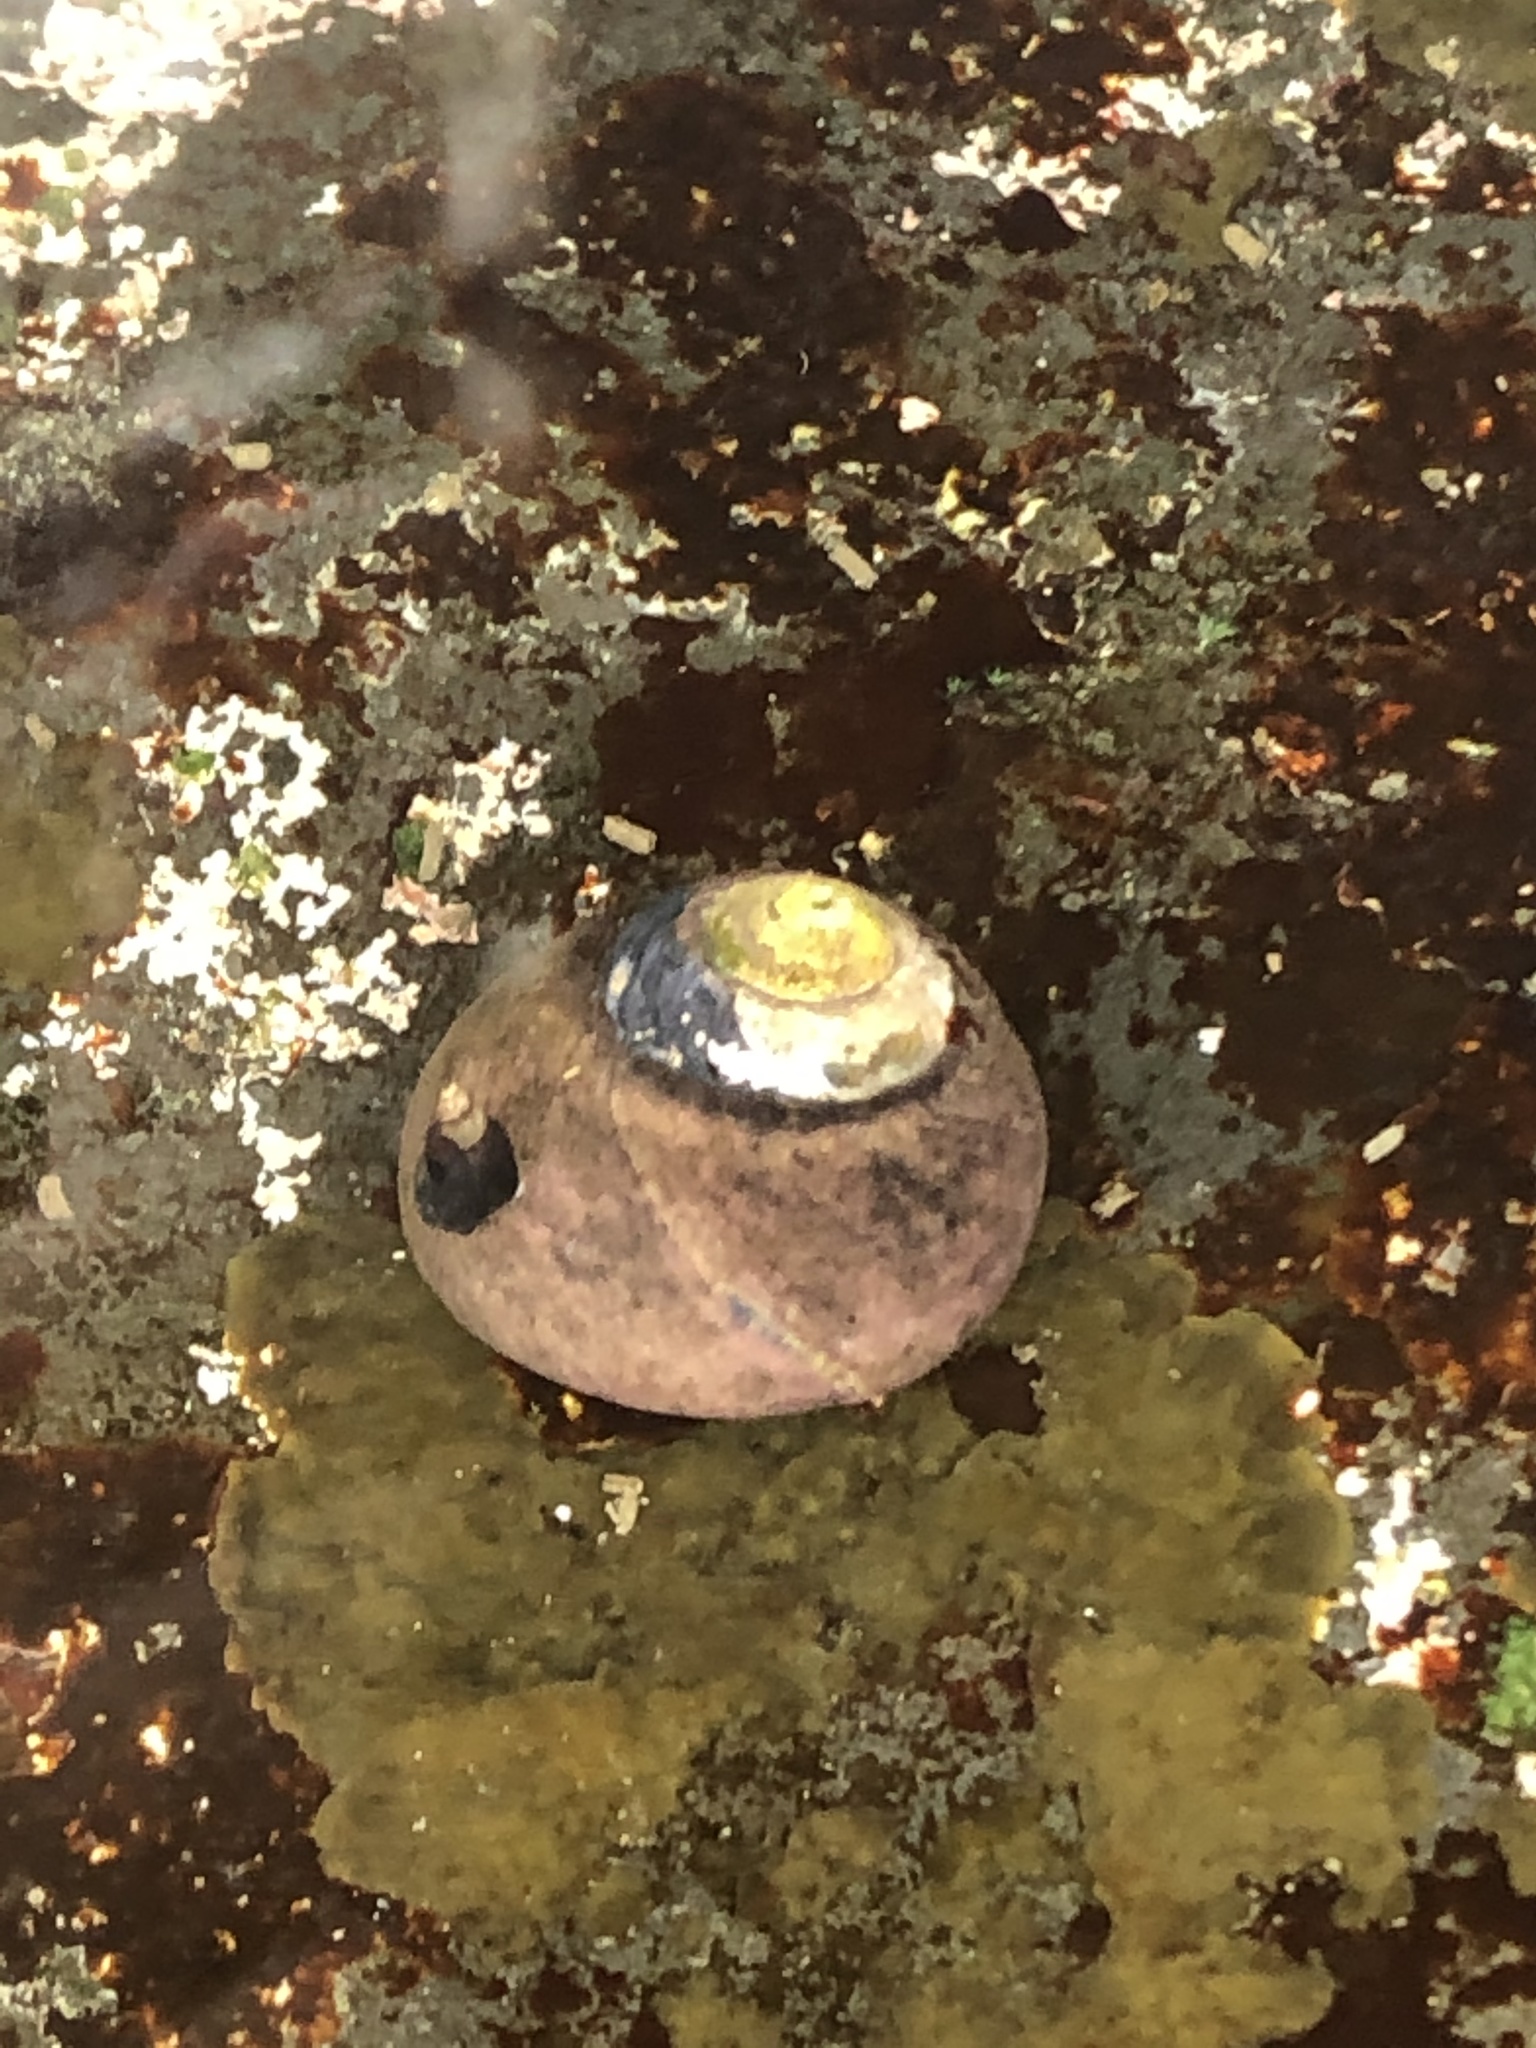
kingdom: Animalia
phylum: Mollusca
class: Gastropoda
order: Trochida
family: Tegulidae
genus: Tegula
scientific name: Tegula funebralis
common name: Black tegula
